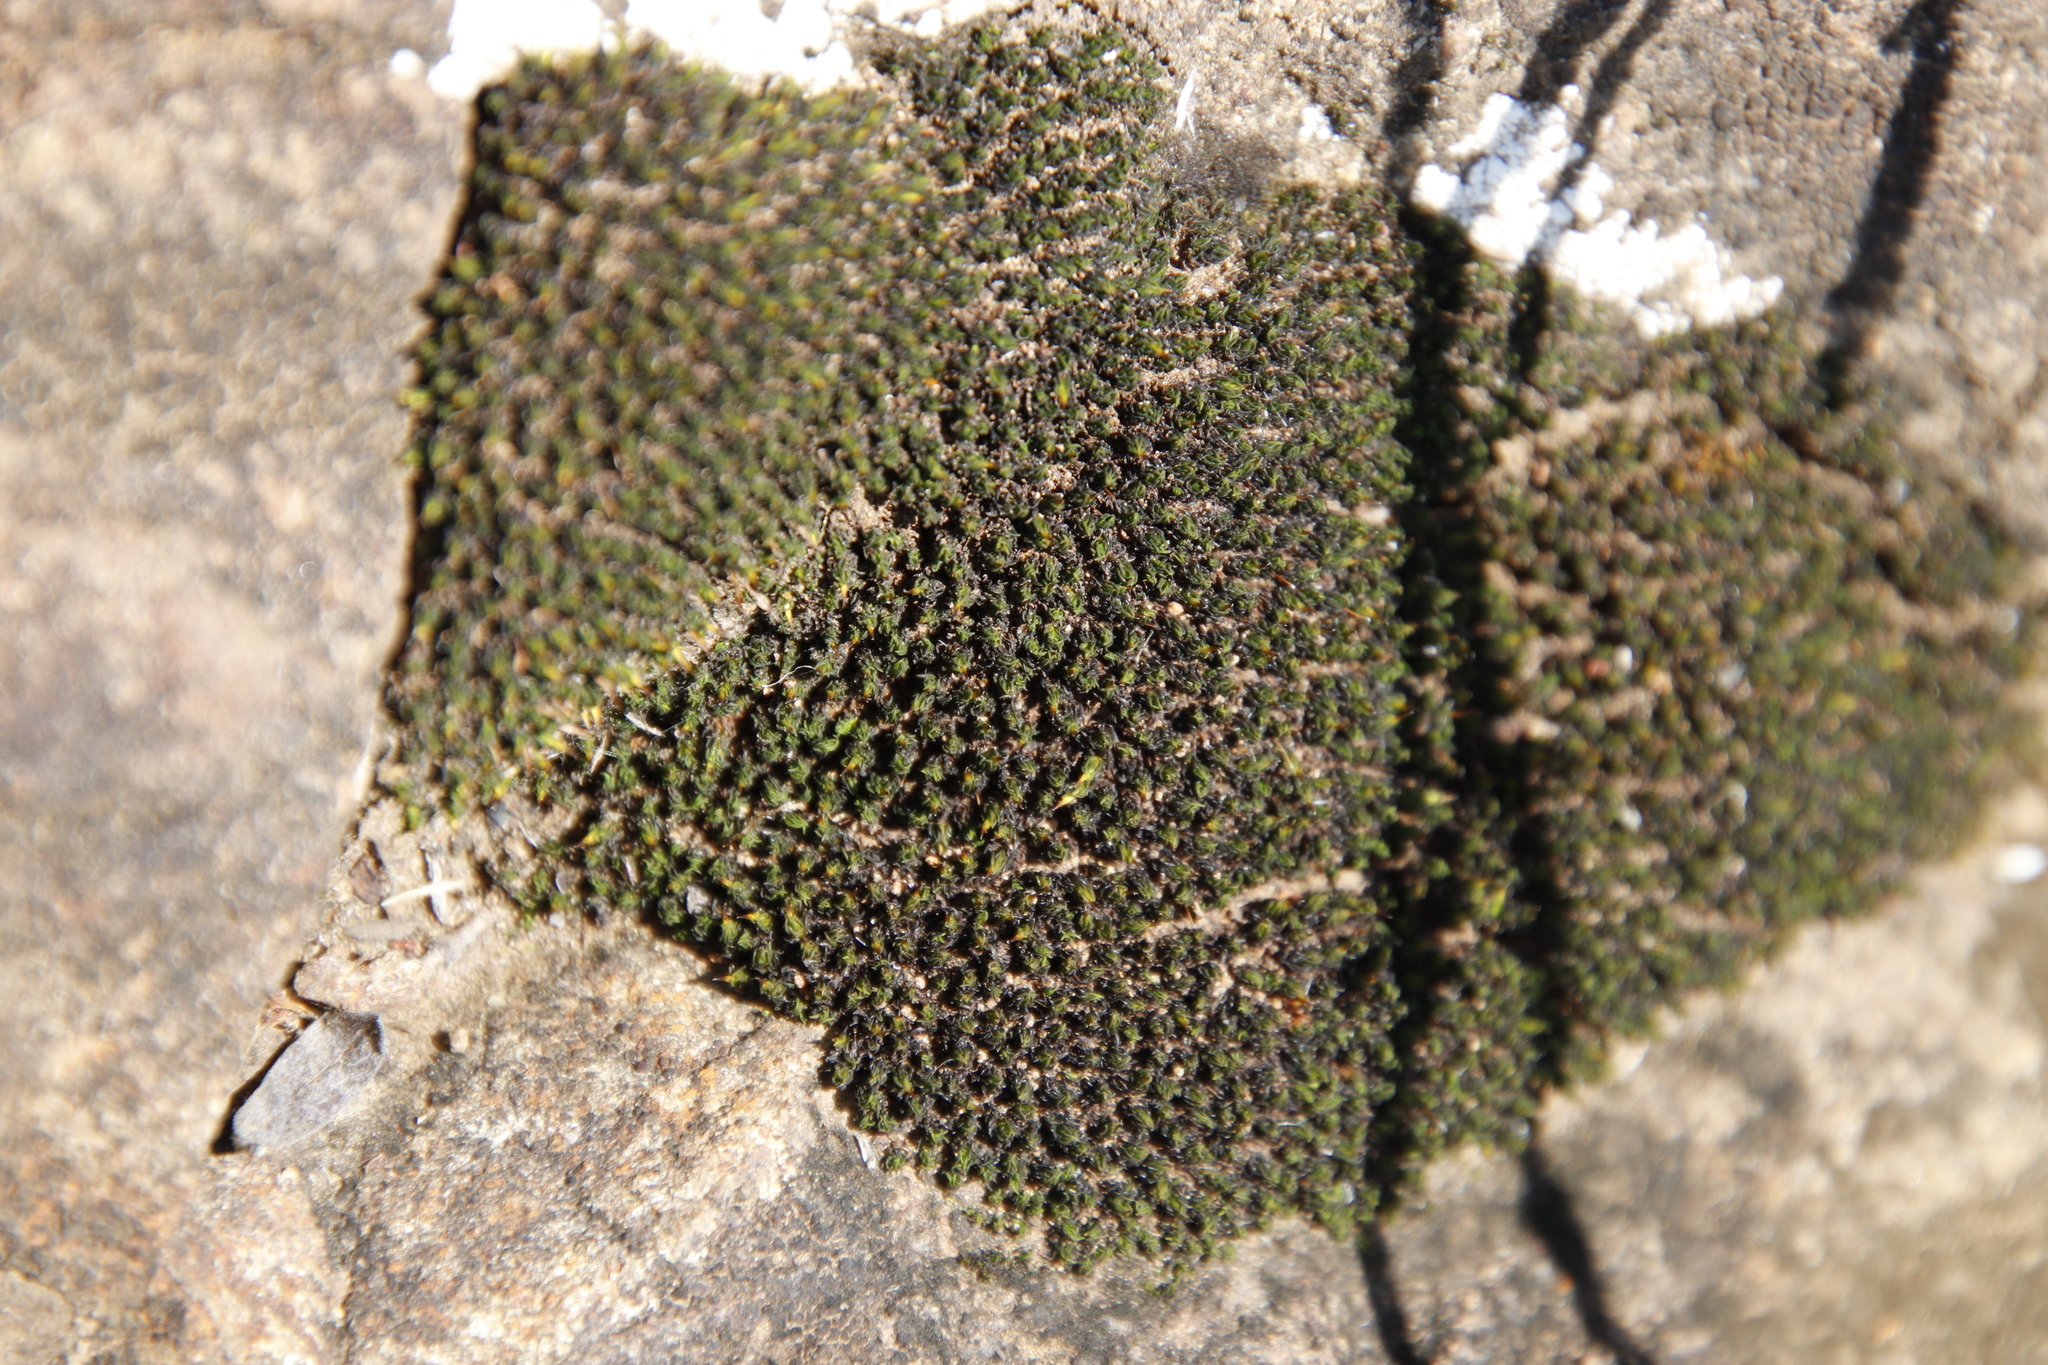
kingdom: Plantae
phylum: Bryophyta
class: Bryopsida
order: Grimmiales
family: Ptychomitriaceae
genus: Ptychomitrium
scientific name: Ptychomitrium cucullatifolium
